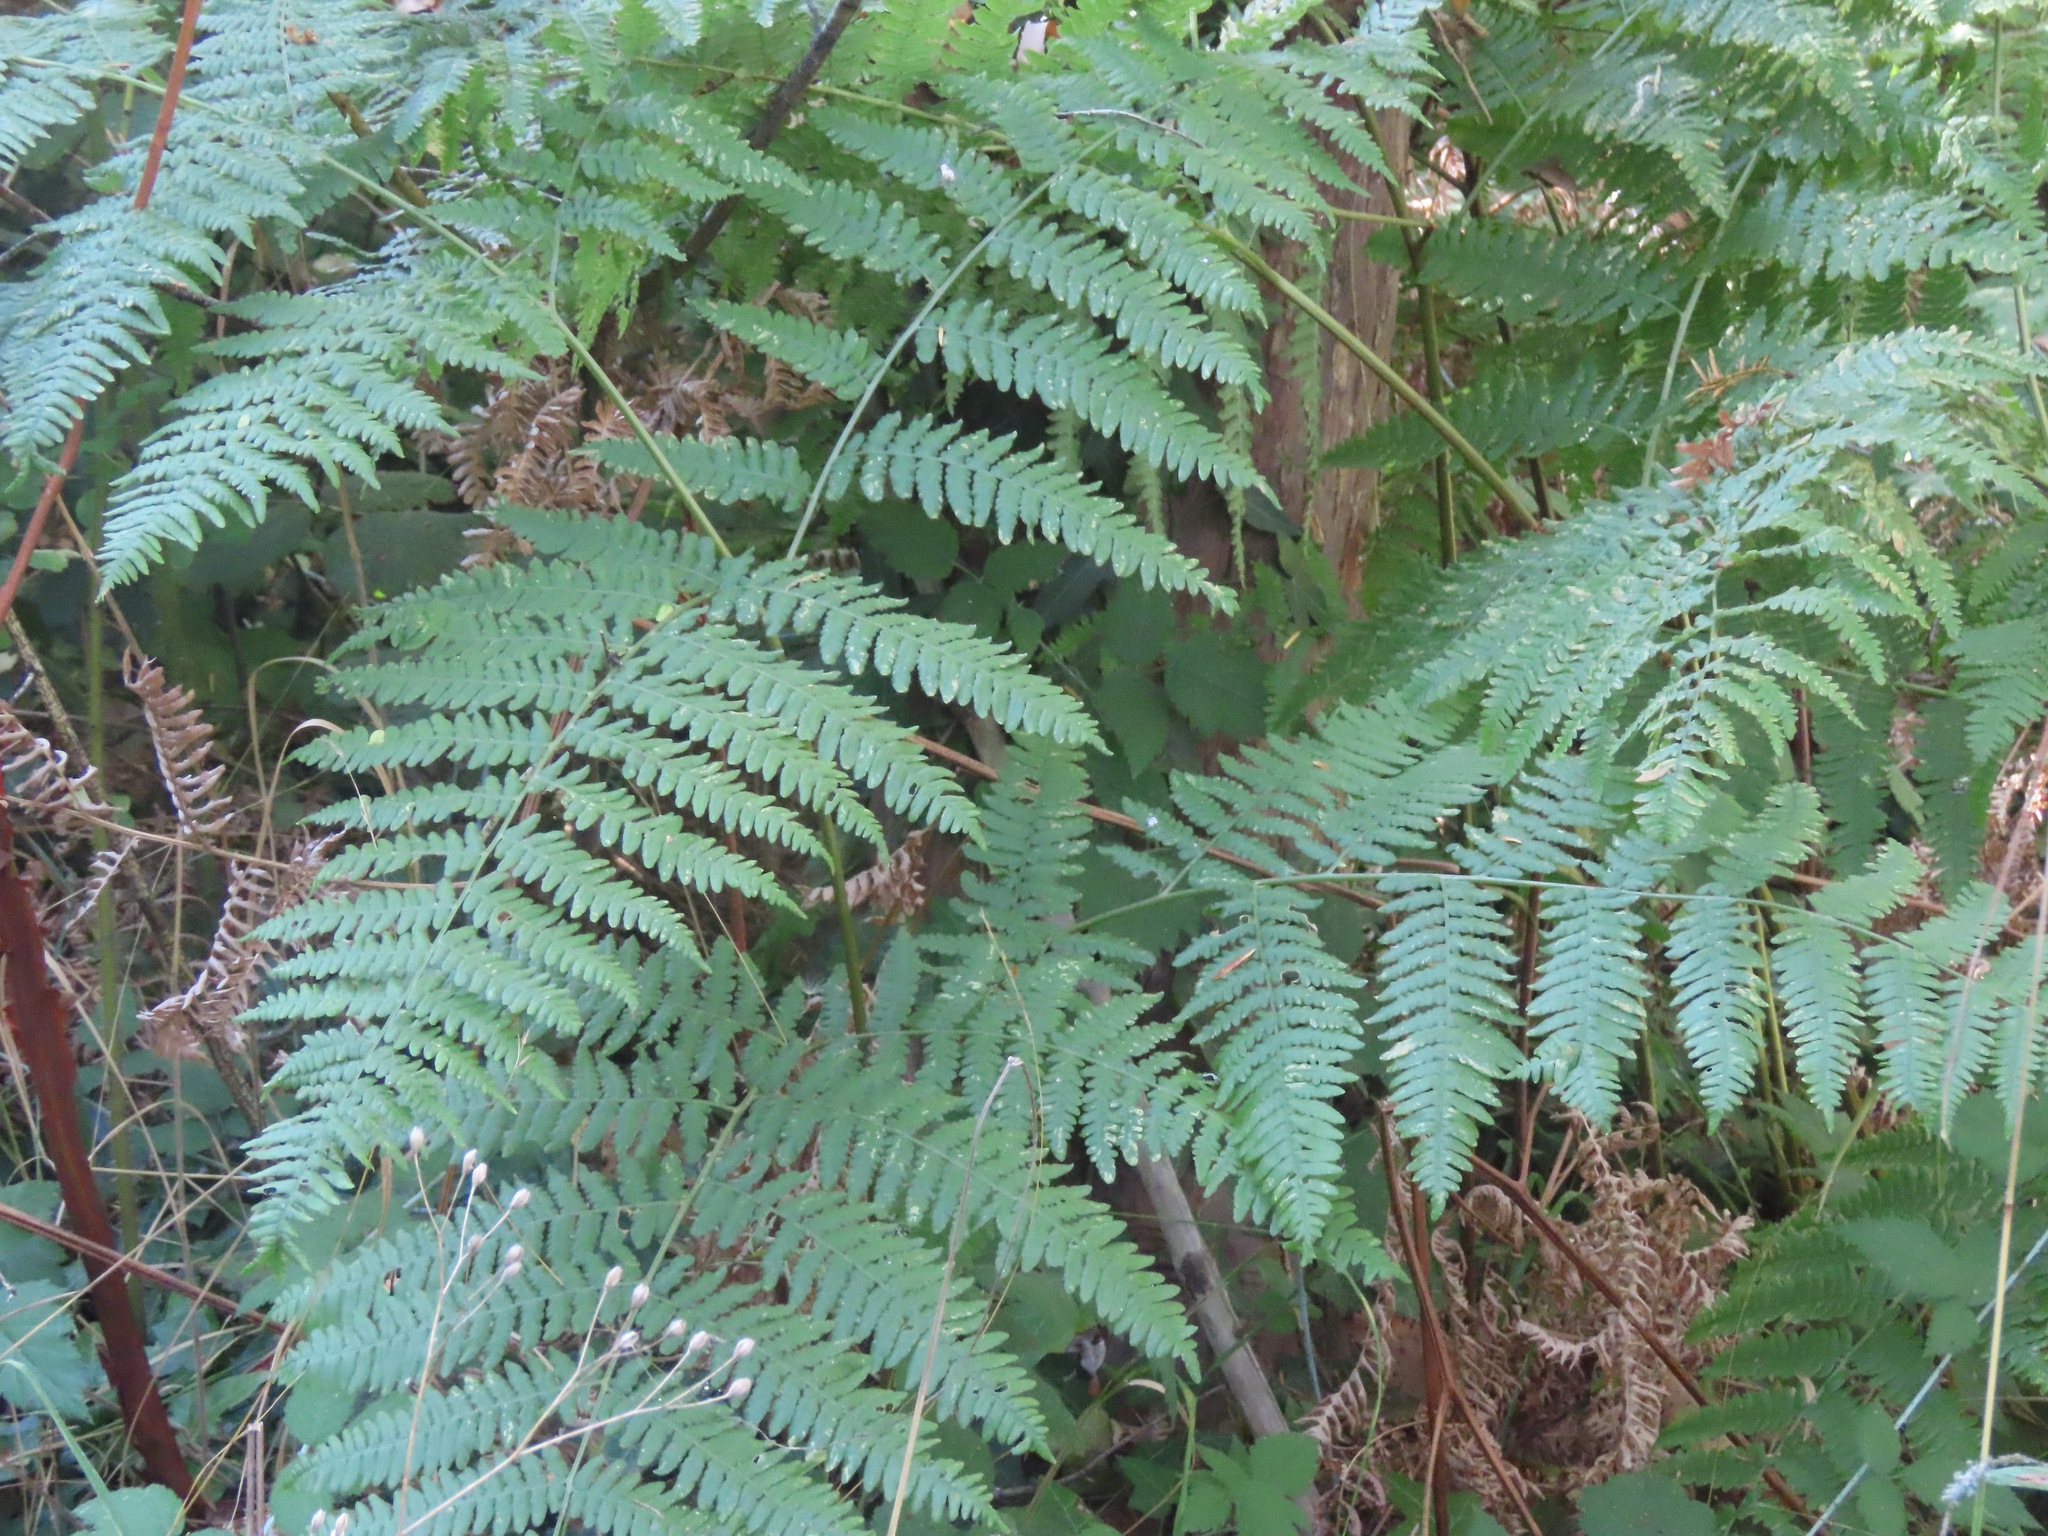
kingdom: Plantae
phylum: Tracheophyta
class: Polypodiopsida
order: Polypodiales
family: Dennstaedtiaceae
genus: Pteridium
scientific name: Pteridium aquilinum
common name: Bracken
